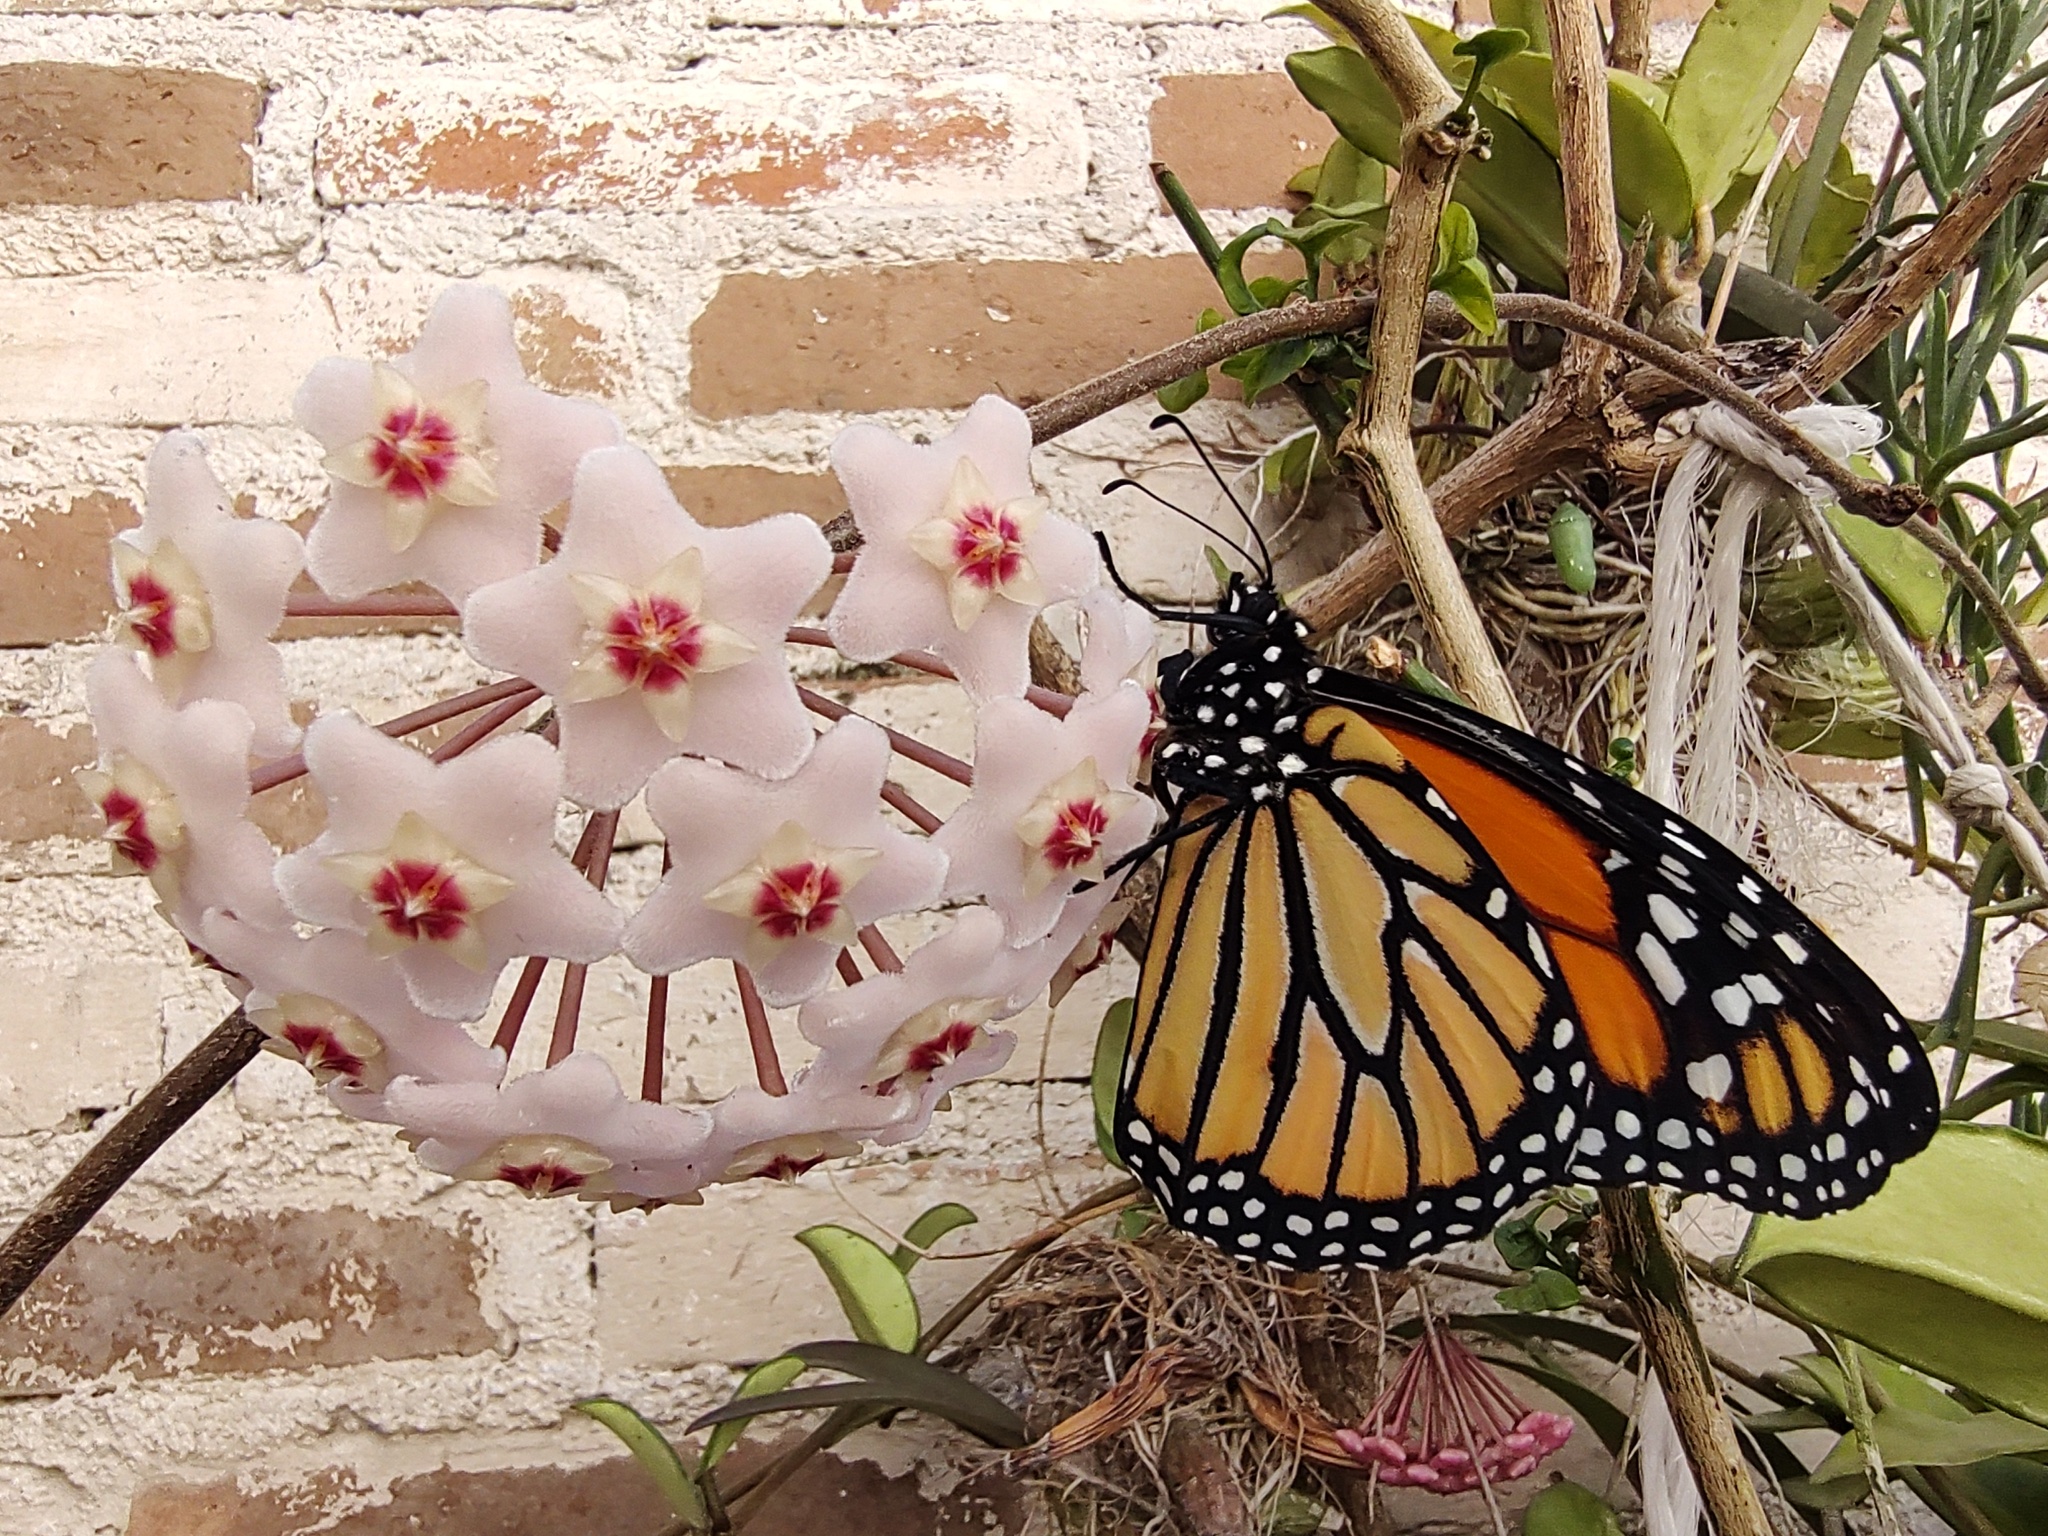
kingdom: Animalia
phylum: Arthropoda
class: Insecta
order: Lepidoptera
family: Nymphalidae
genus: Danaus
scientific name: Danaus plexippus
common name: Monarch
